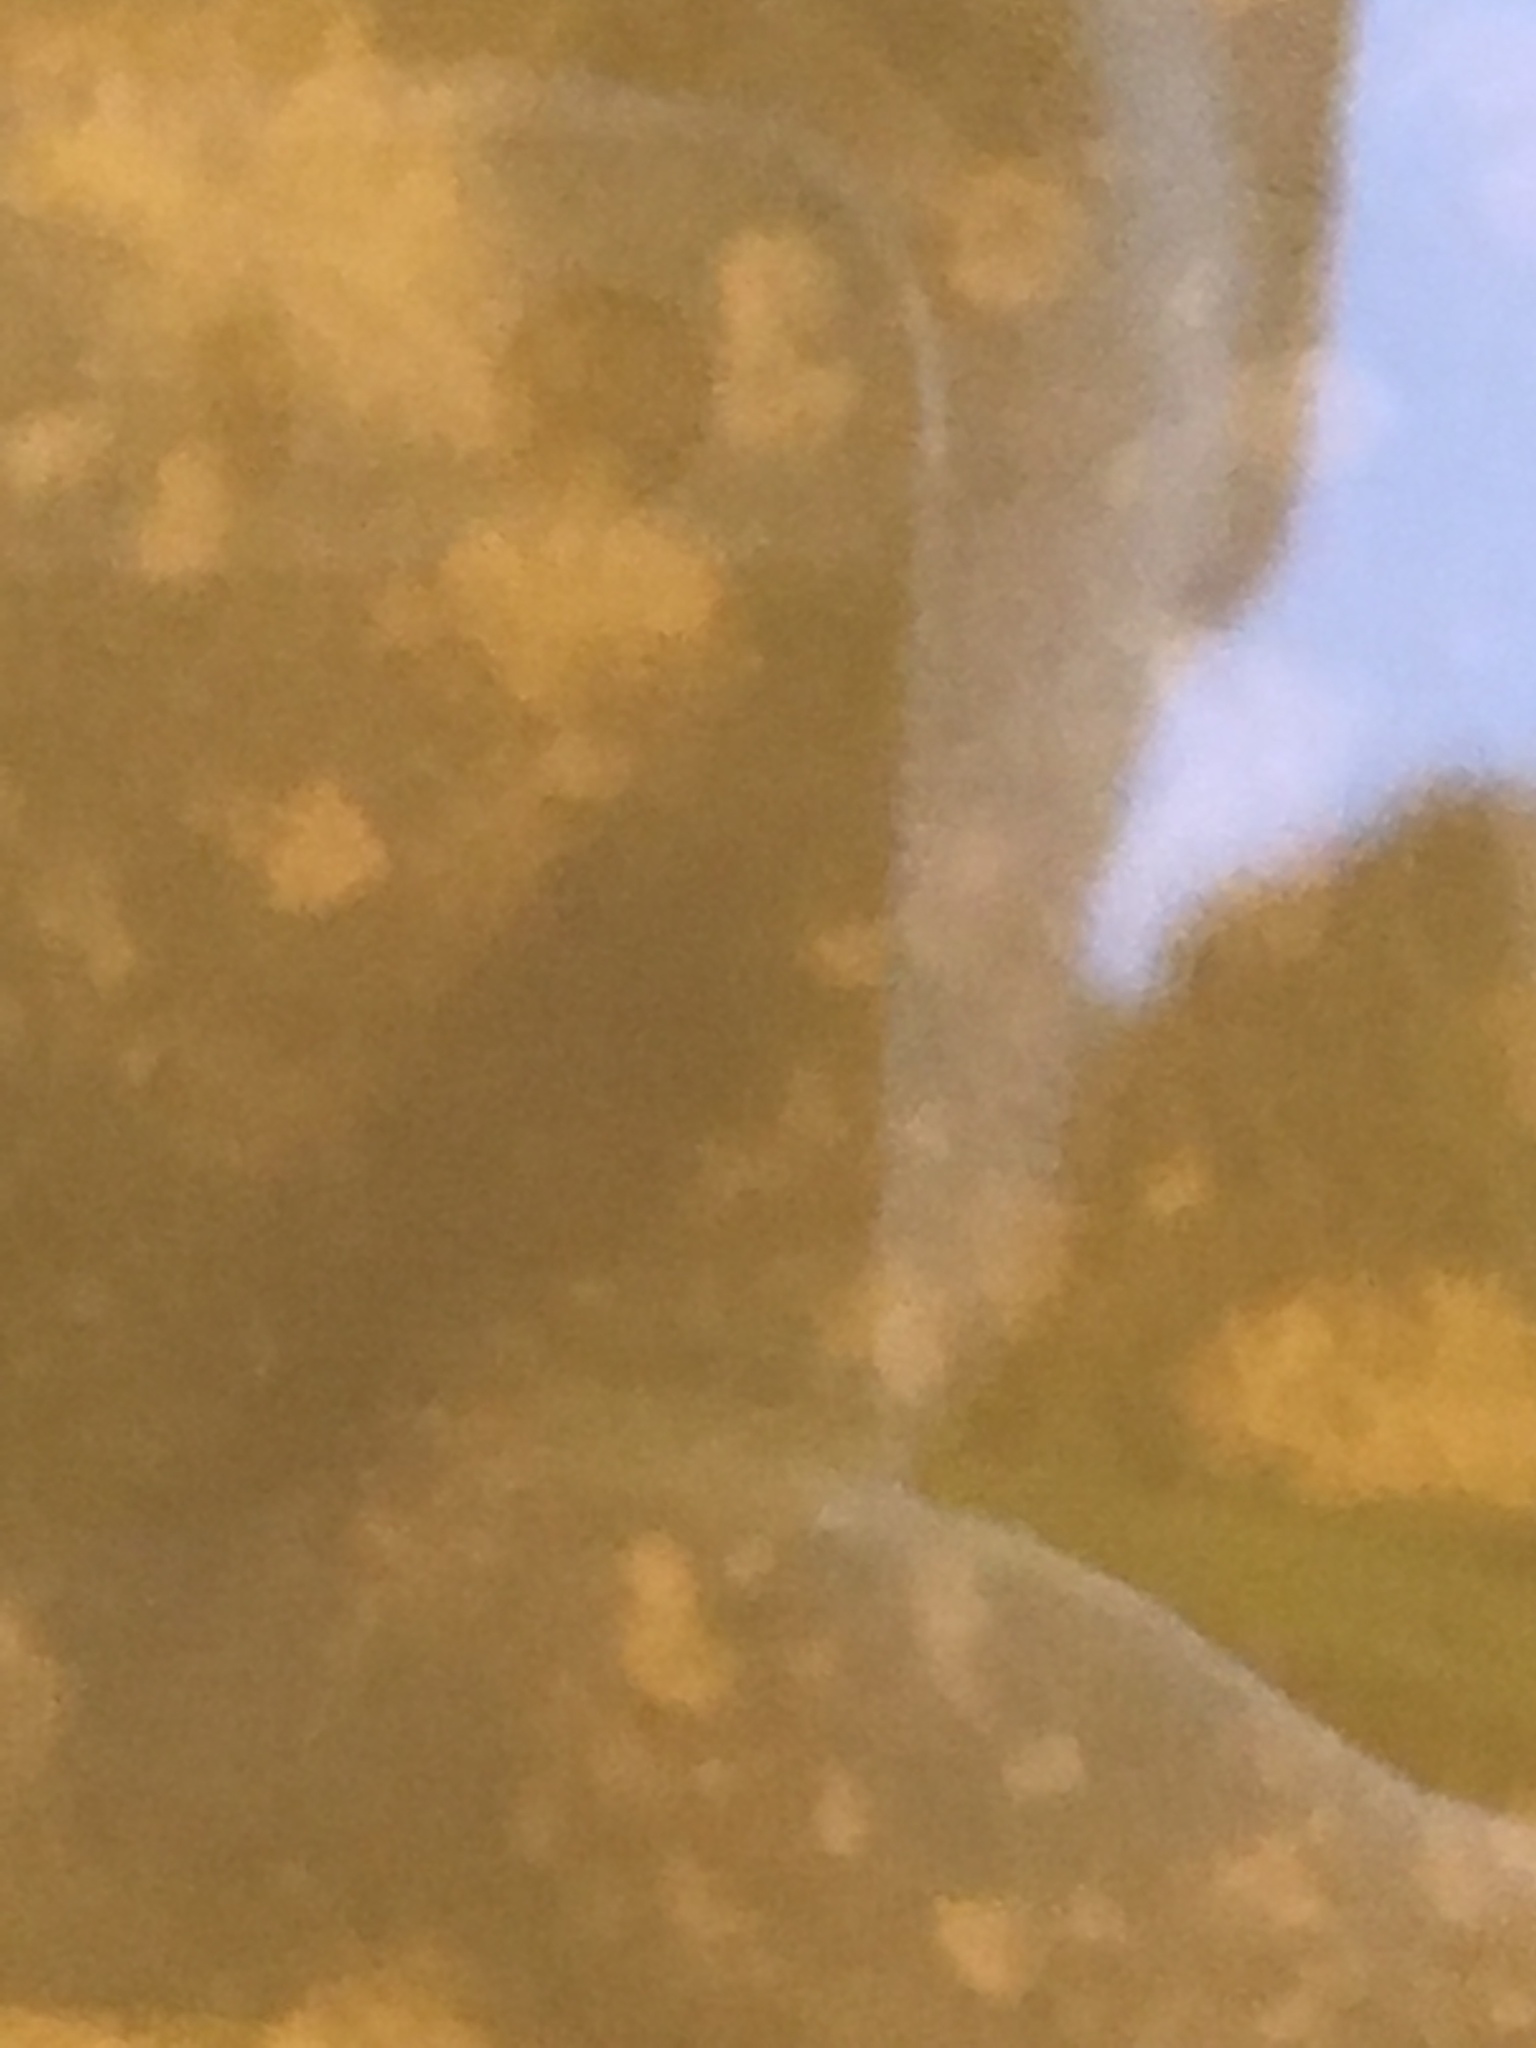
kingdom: Animalia
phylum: Chordata
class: Amphibia
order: Anura
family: Hylidae
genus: Osteopilus
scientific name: Osteopilus septentrionalis
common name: Cuban treefrog
